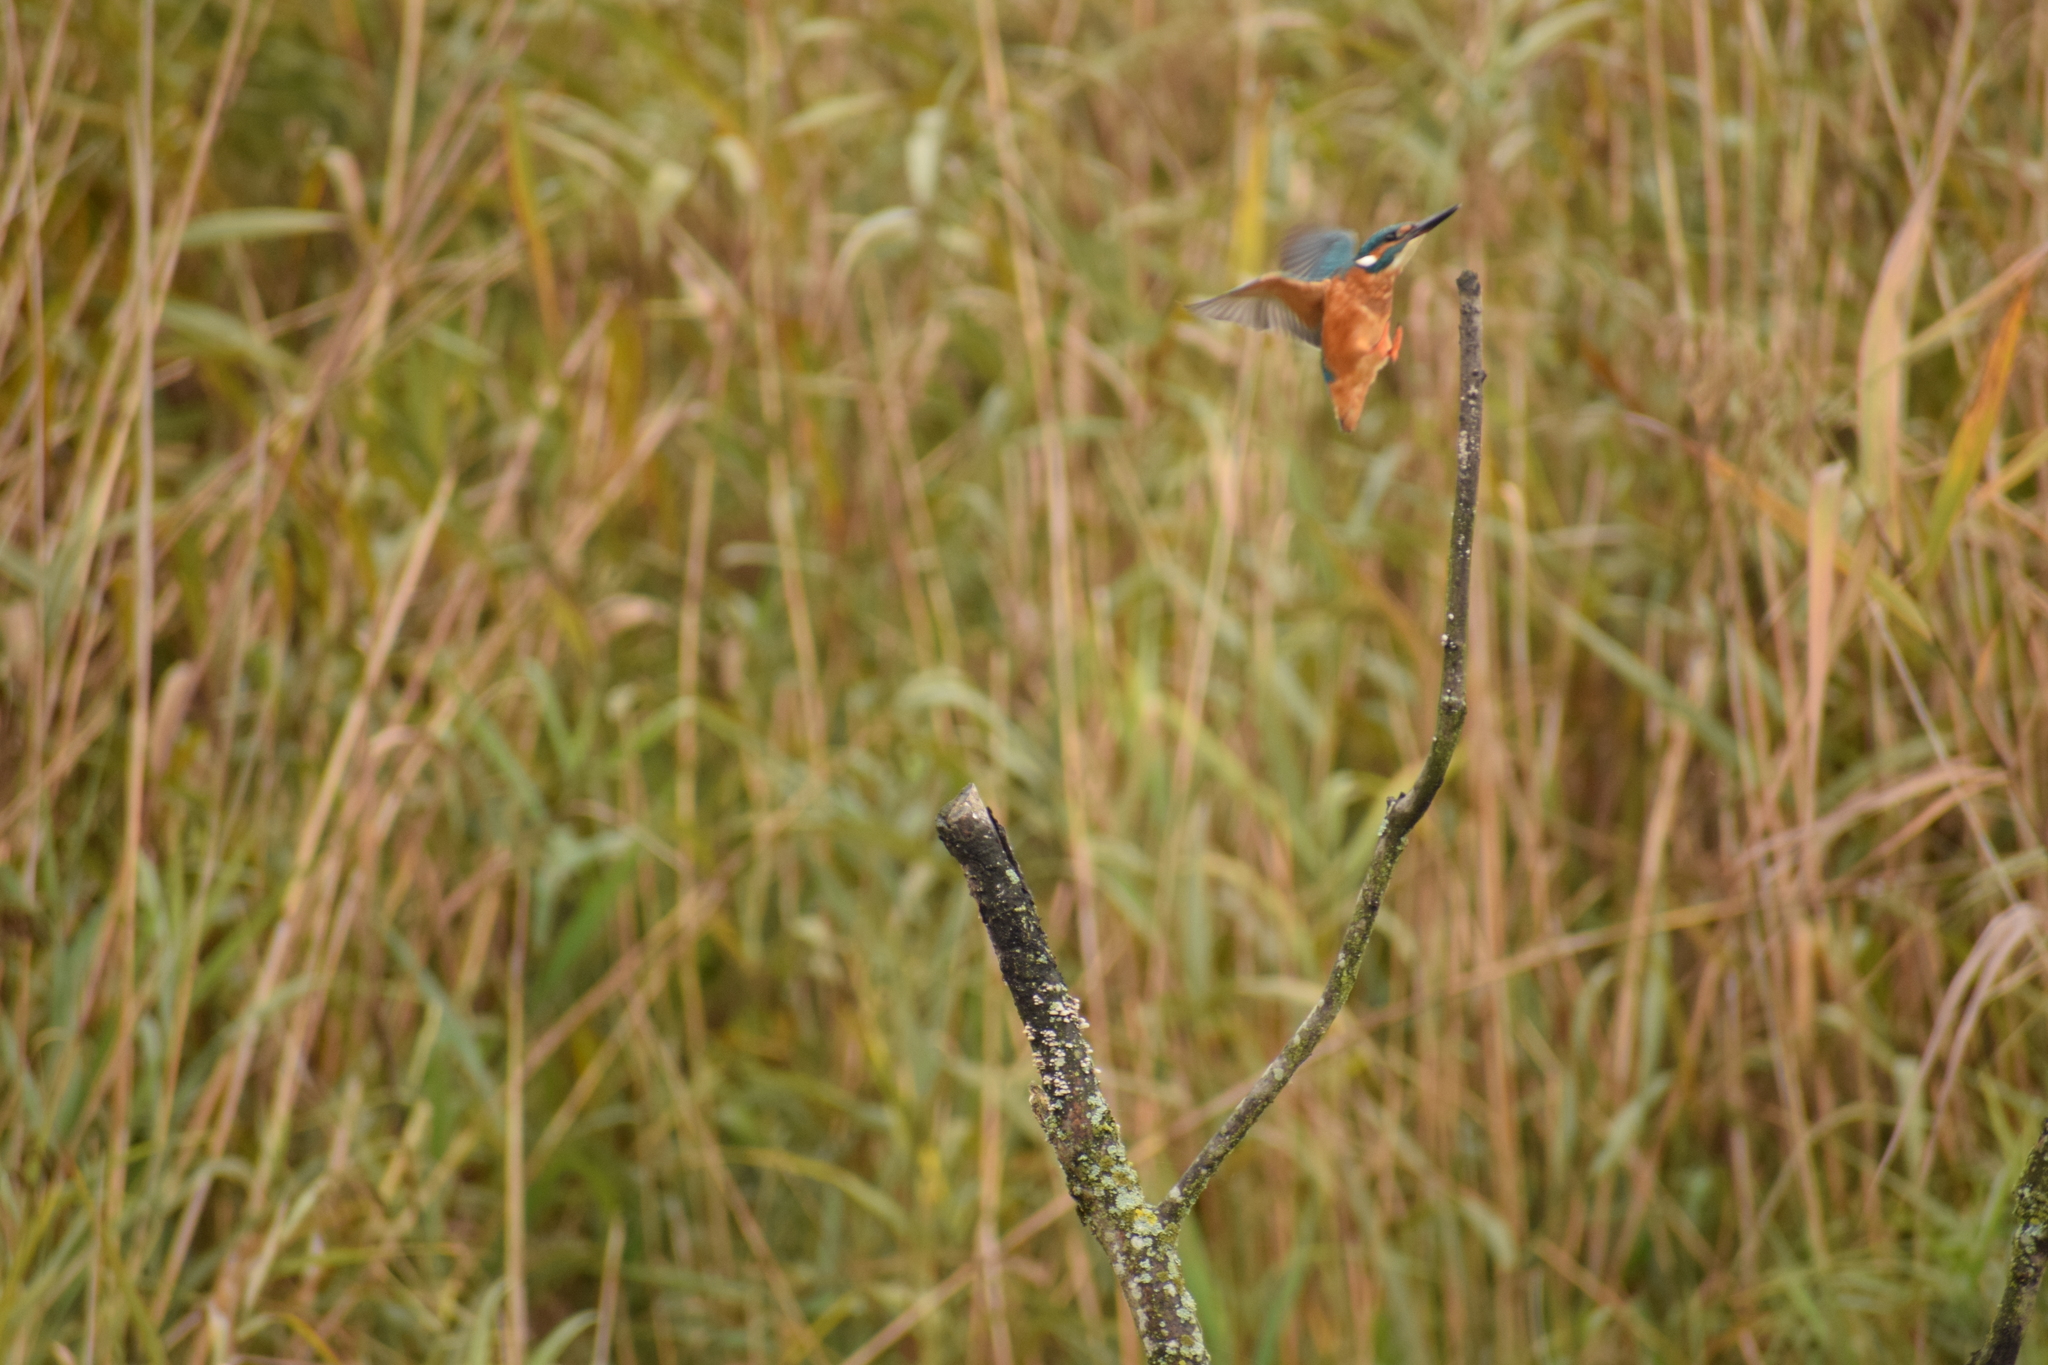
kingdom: Animalia
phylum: Chordata
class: Aves
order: Coraciiformes
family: Alcedinidae
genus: Alcedo
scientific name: Alcedo atthis
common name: Common kingfisher
